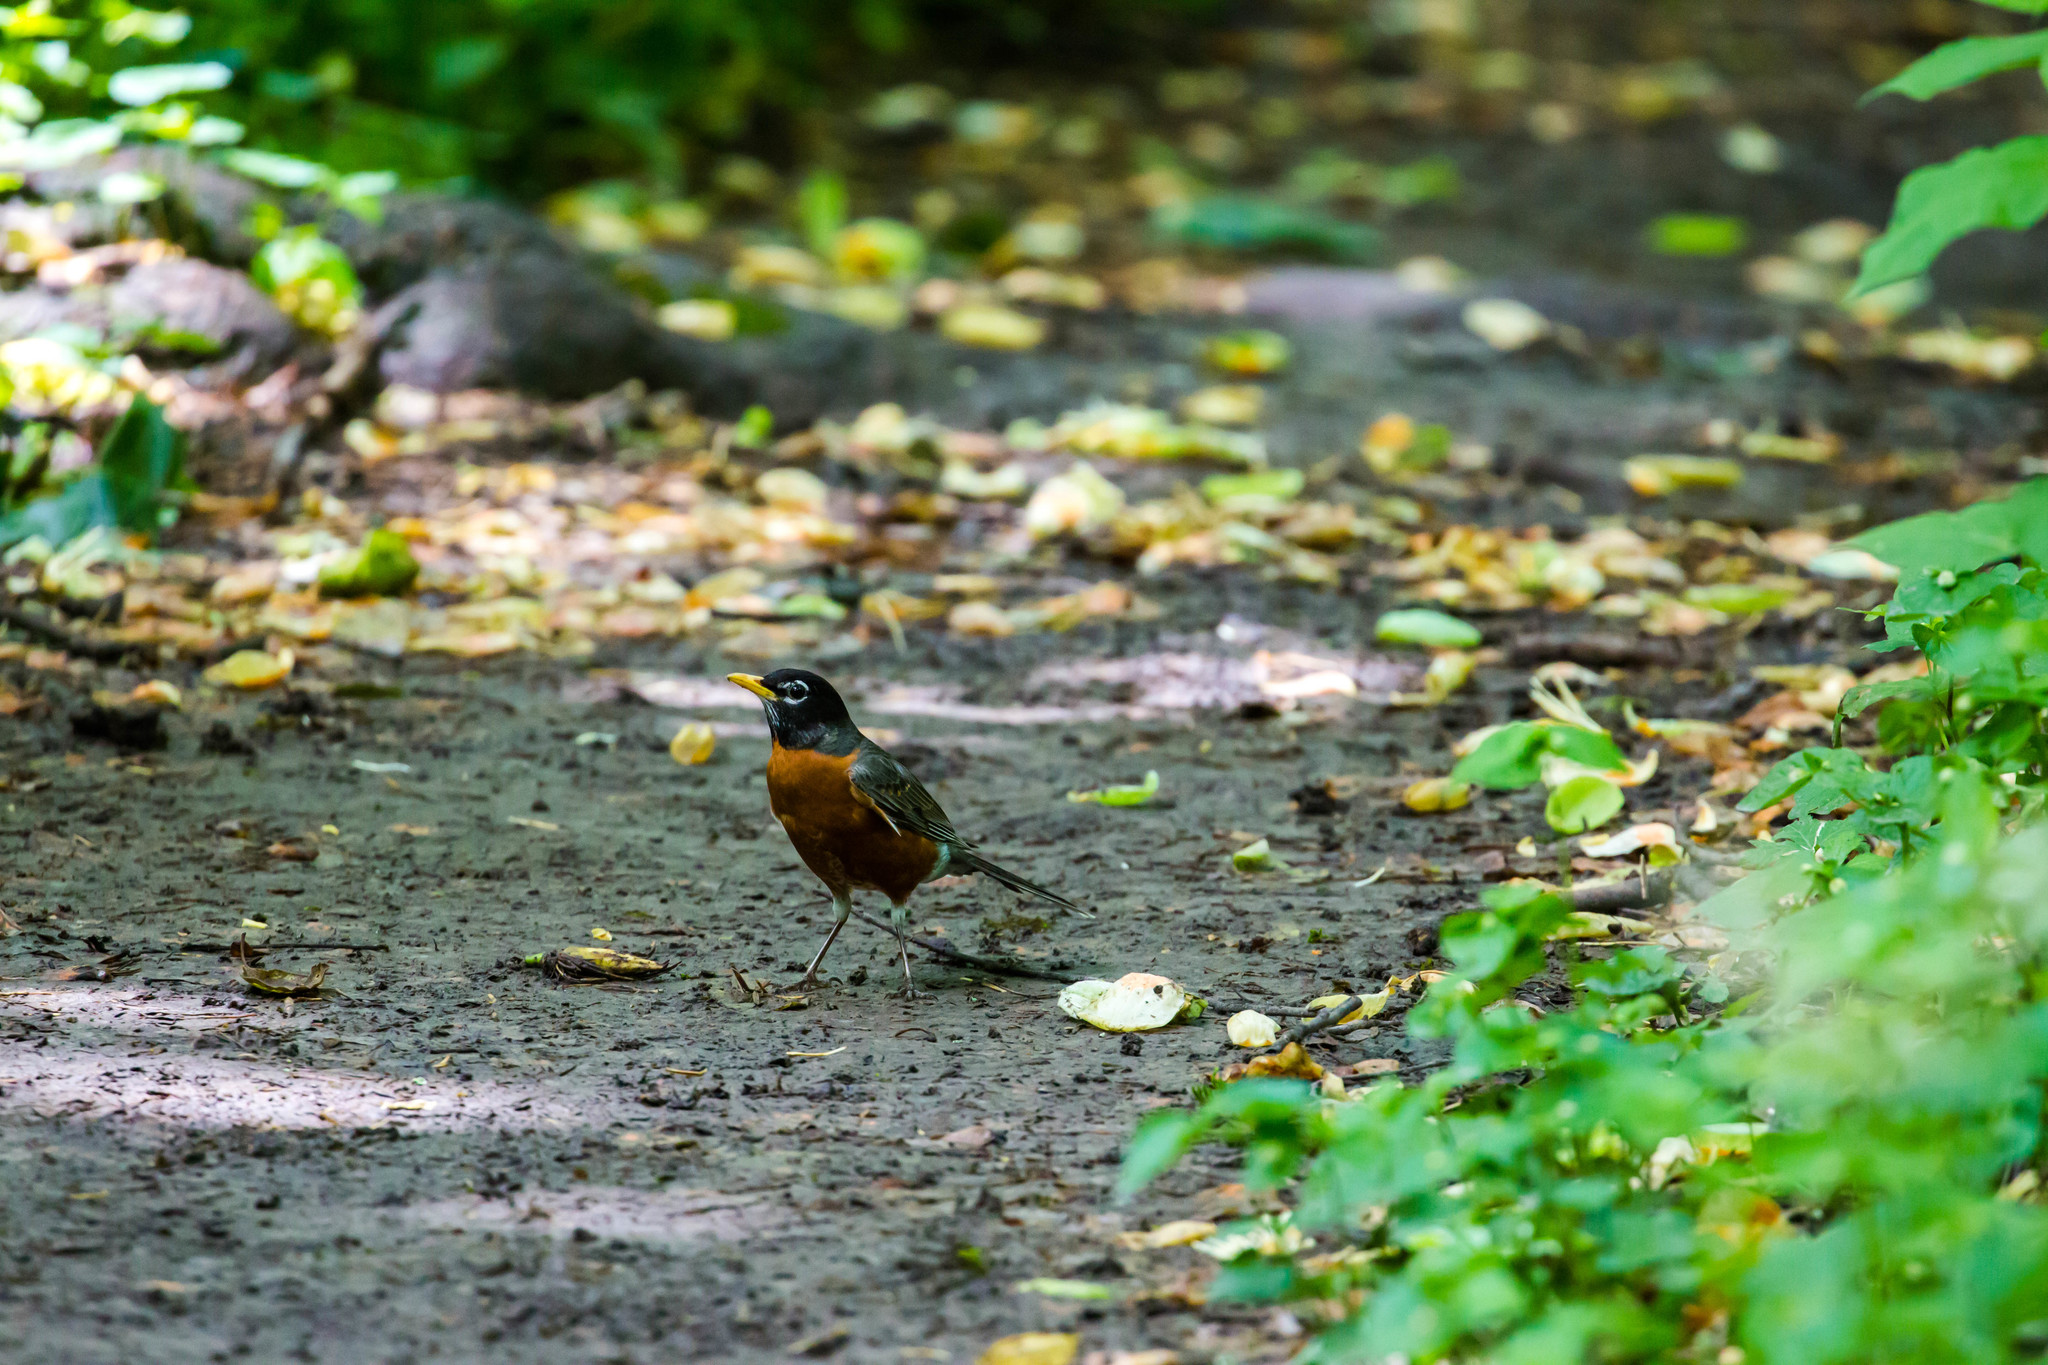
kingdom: Animalia
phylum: Chordata
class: Aves
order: Passeriformes
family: Turdidae
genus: Turdus
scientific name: Turdus migratorius
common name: American robin
